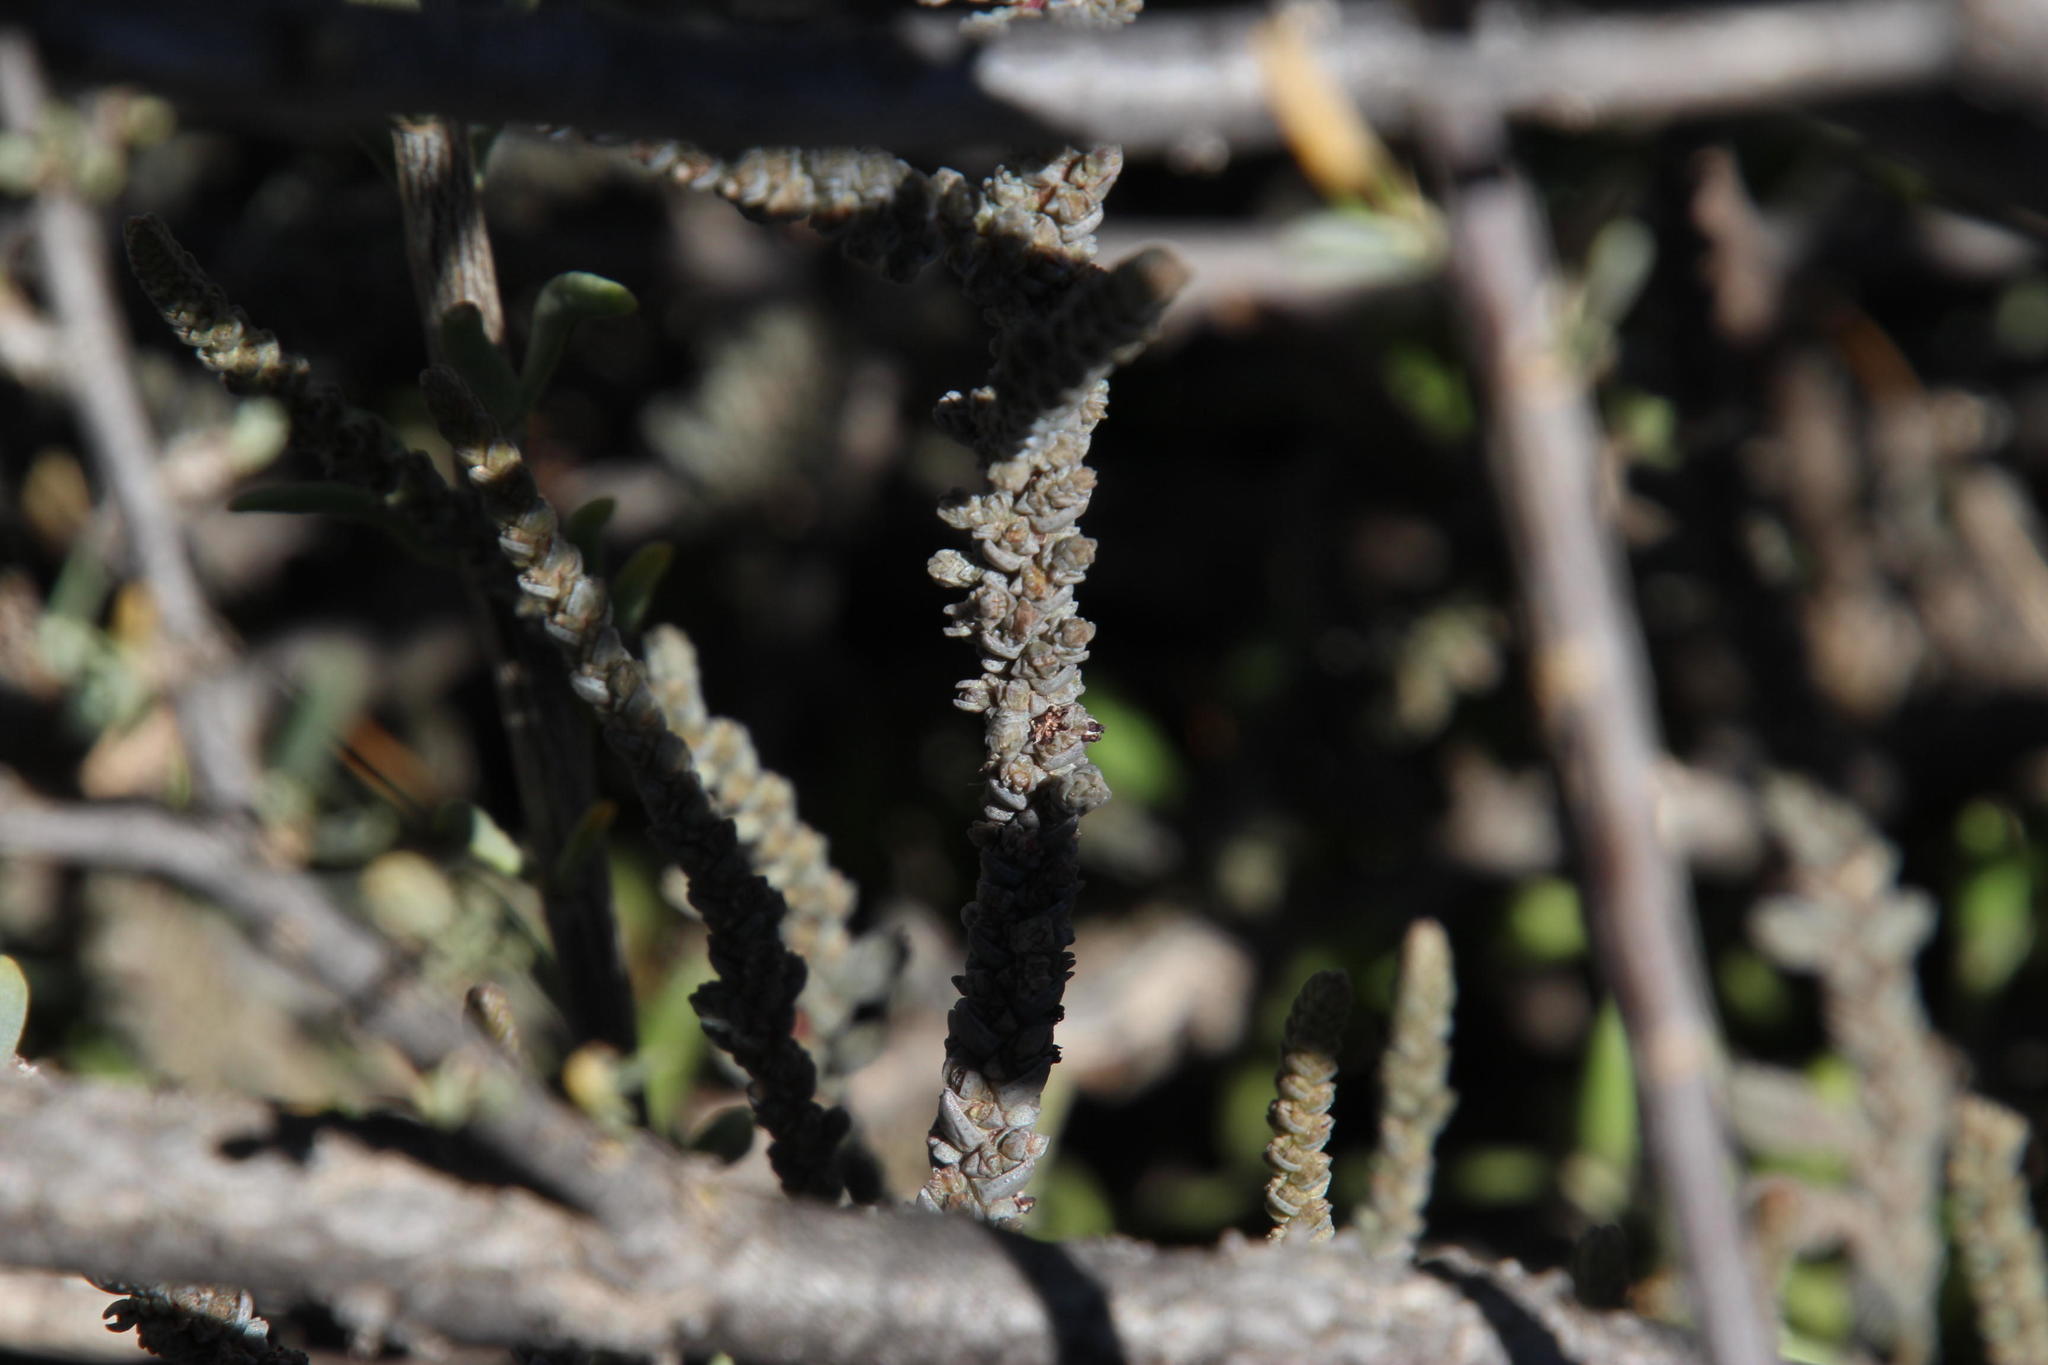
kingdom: Plantae
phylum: Tracheophyta
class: Magnoliopsida
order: Saxifragales
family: Crassulaceae
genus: Crassula
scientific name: Crassula muscosa
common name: Toy-cypress
